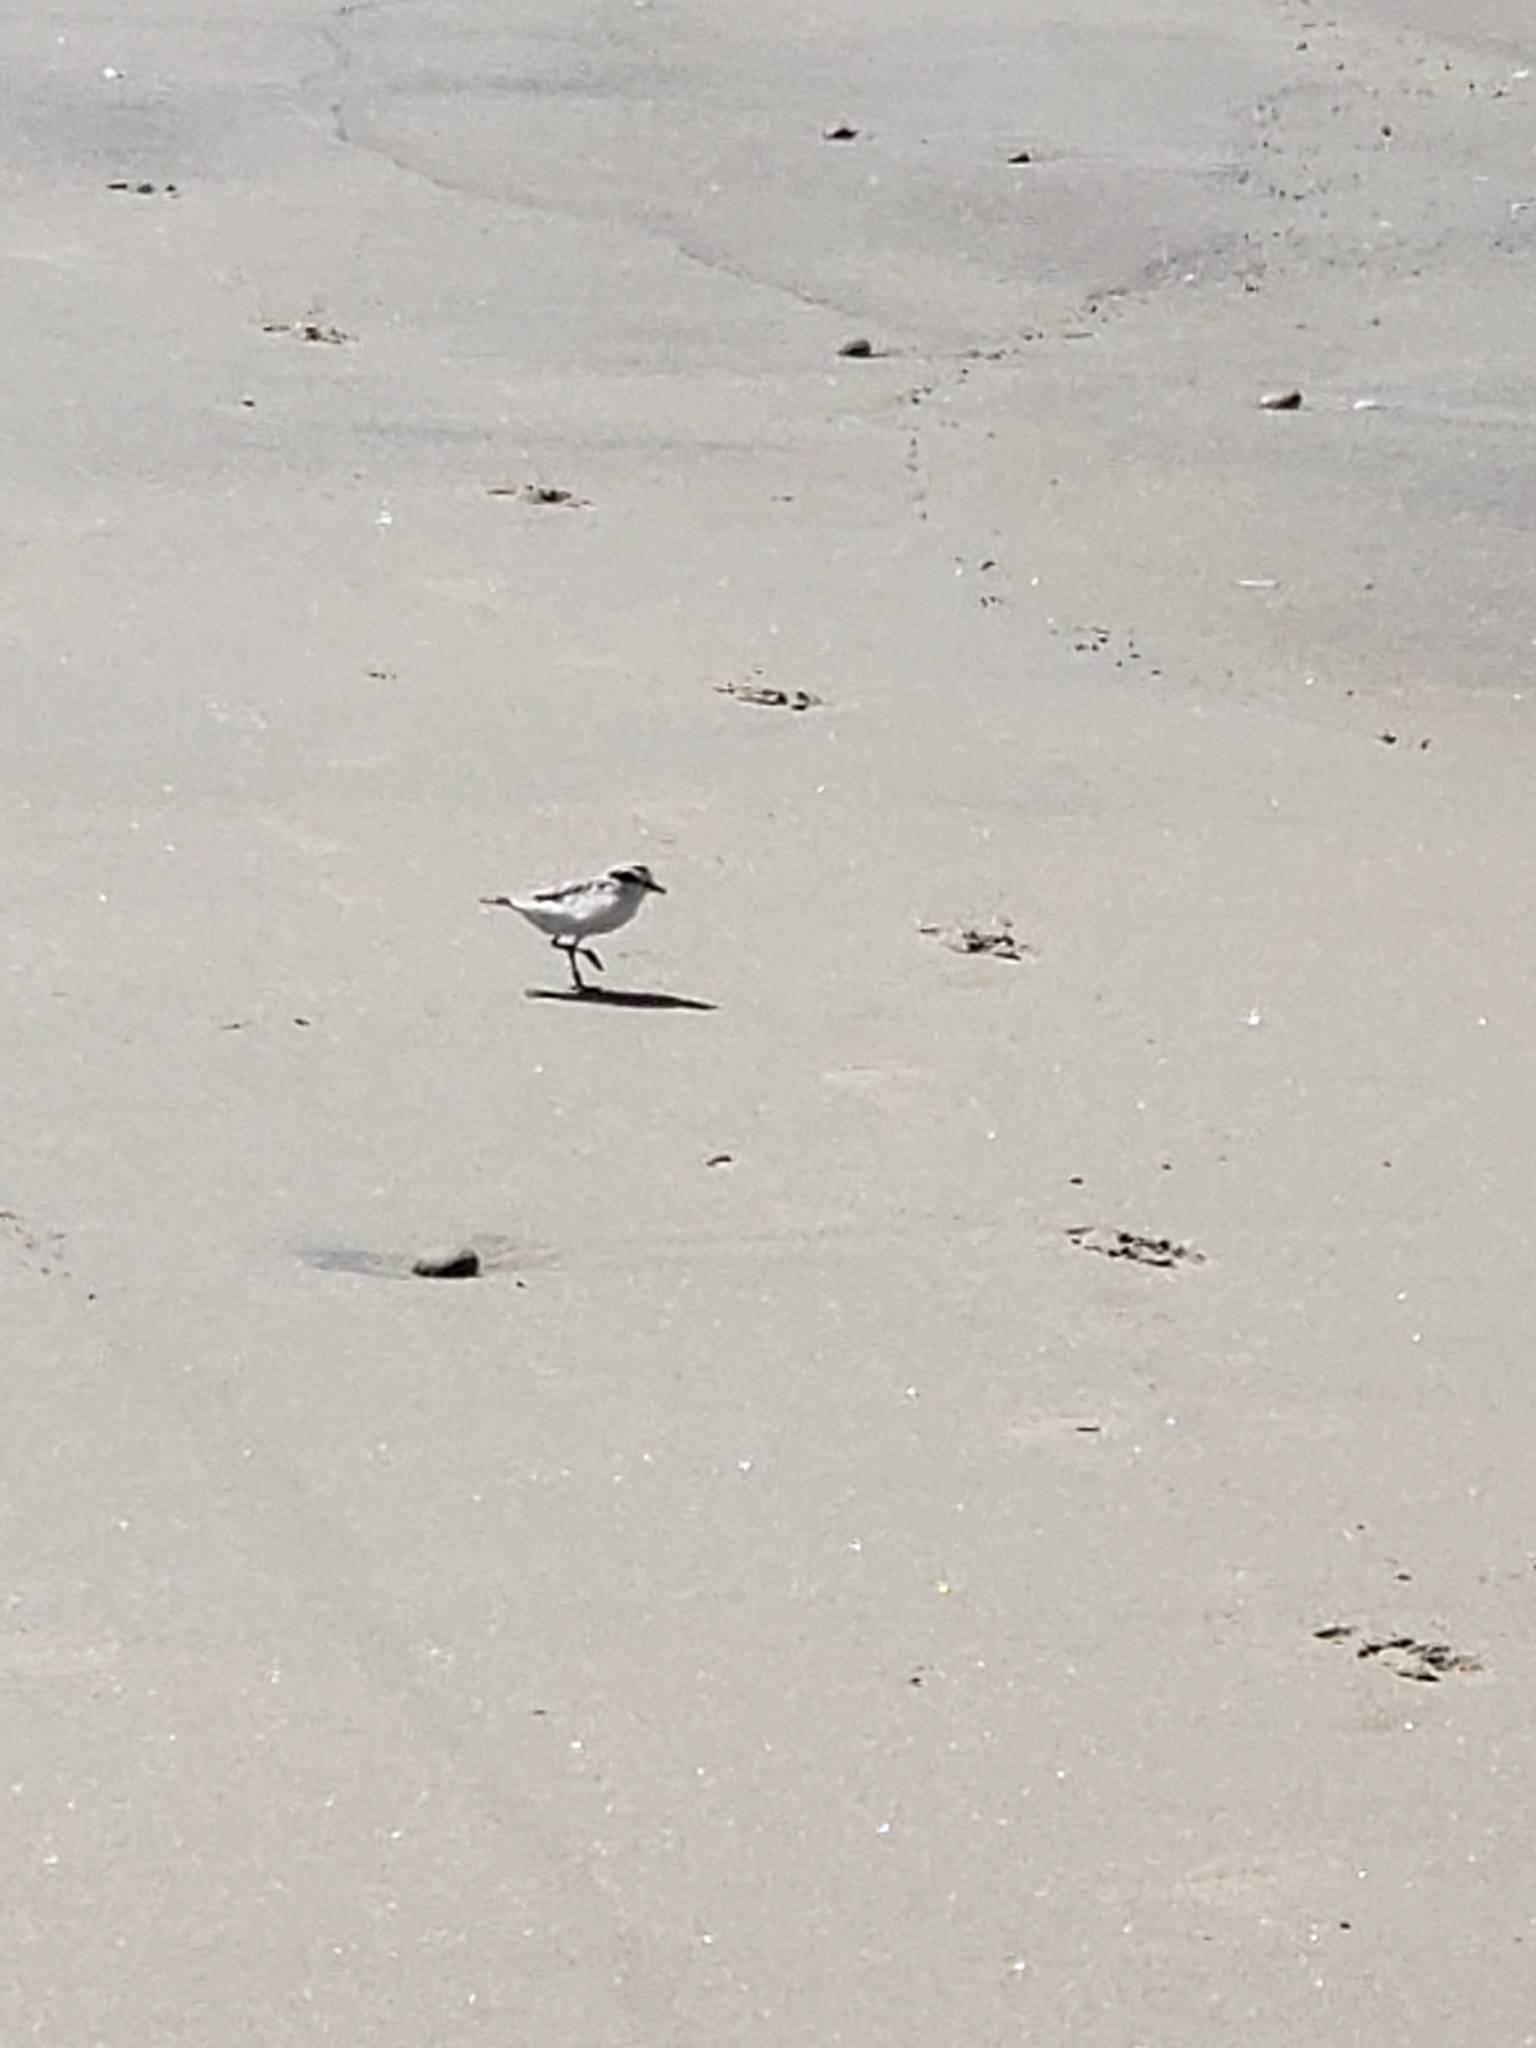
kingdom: Animalia
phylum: Chordata
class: Aves
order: Charadriiformes
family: Charadriidae
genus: Anarhynchus
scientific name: Anarhynchus
